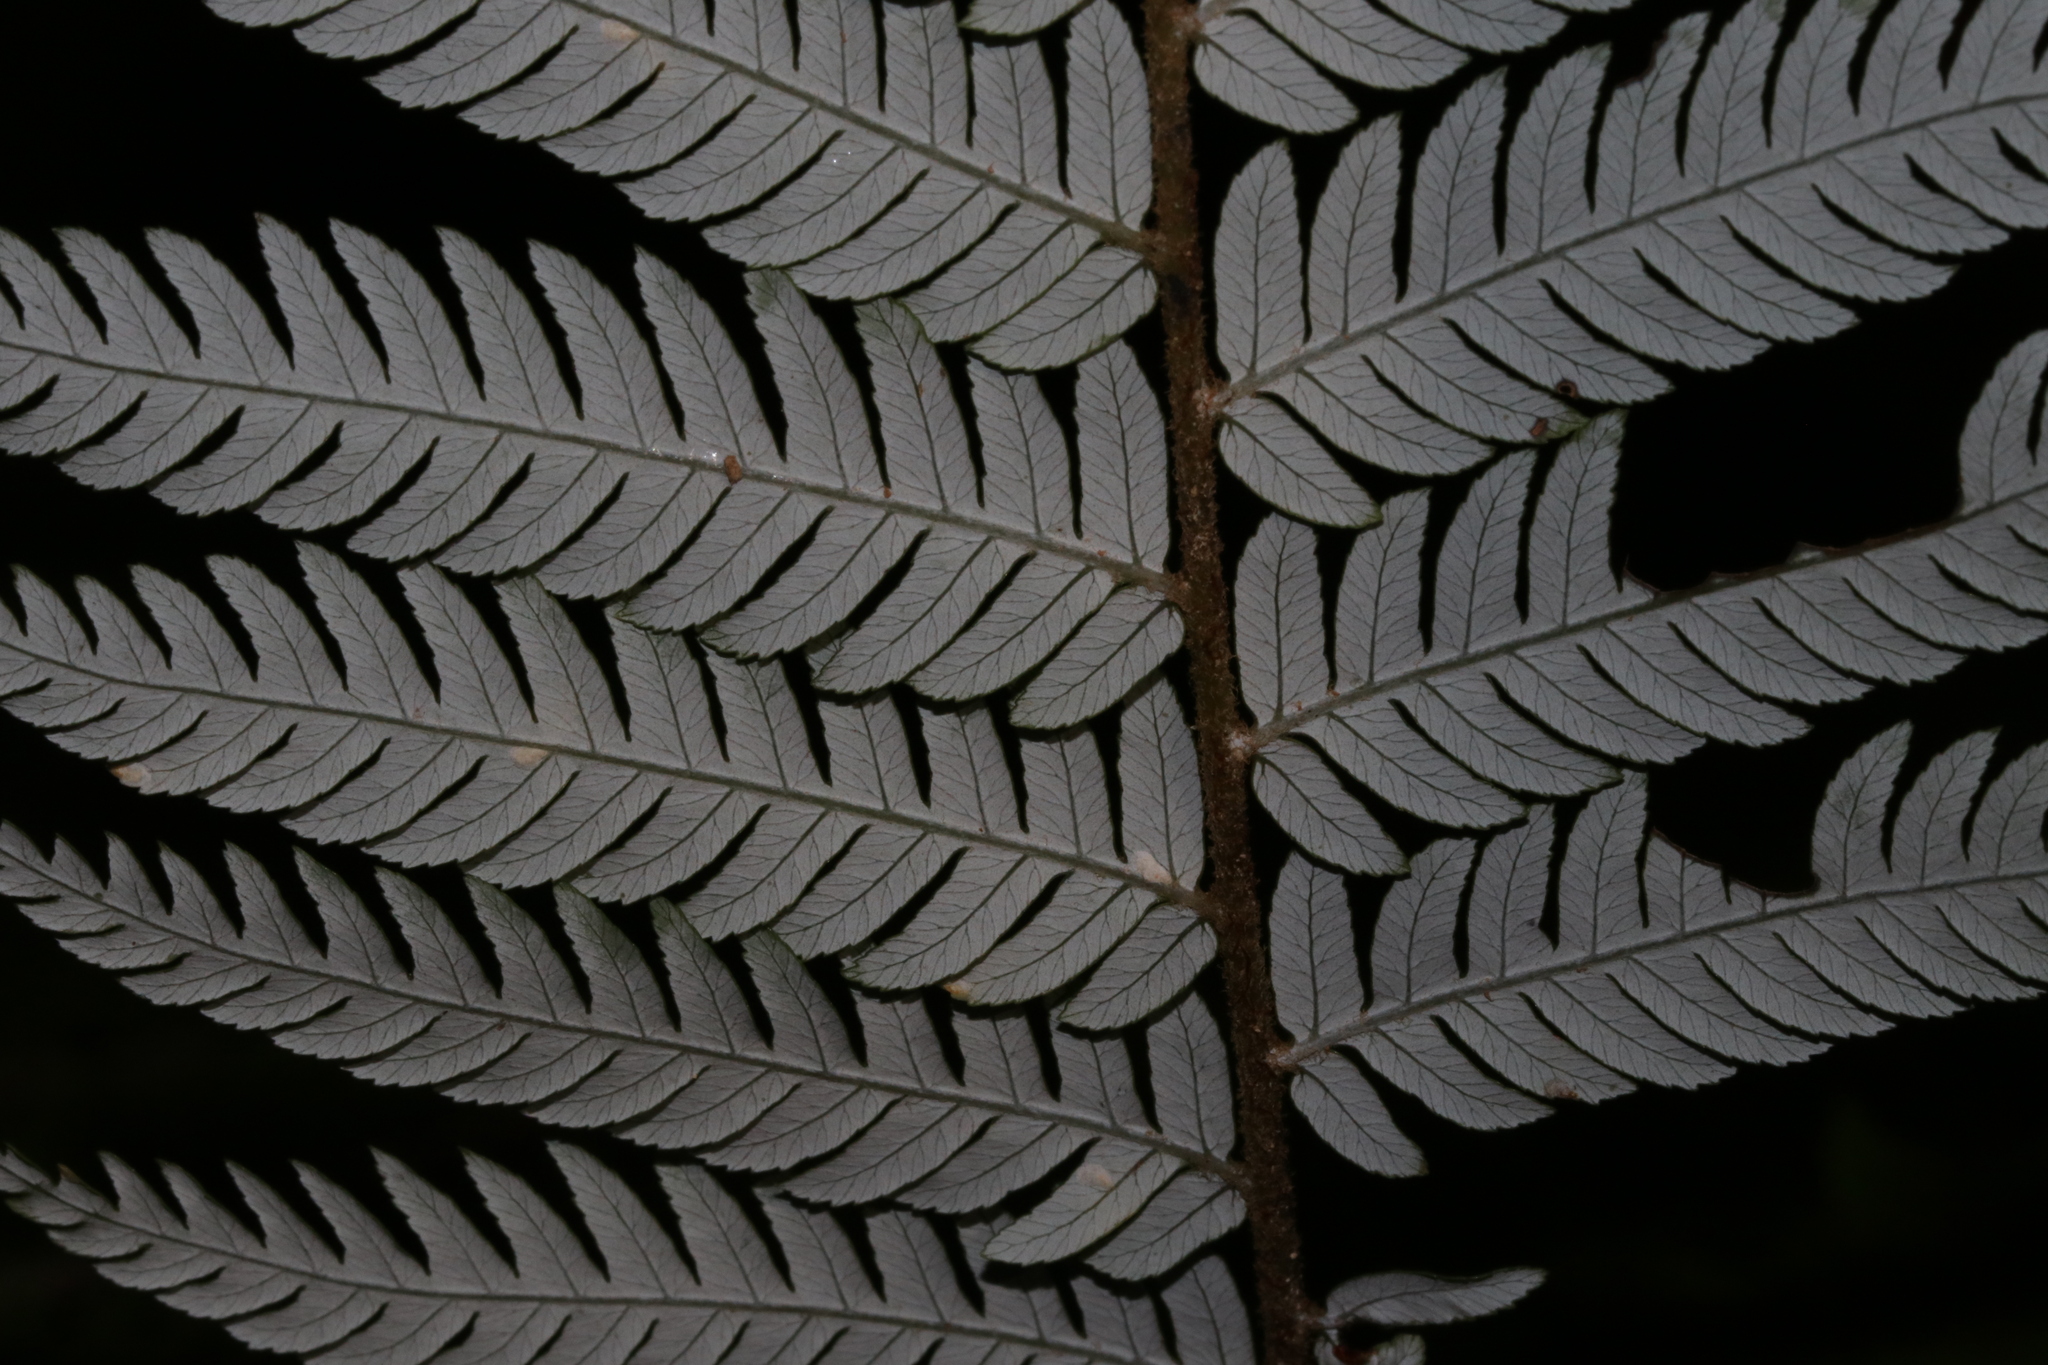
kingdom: Plantae
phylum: Tracheophyta
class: Polypodiopsida
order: Cyatheales
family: Cyatheaceae
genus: Alsophila
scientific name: Alsophila dealbata
